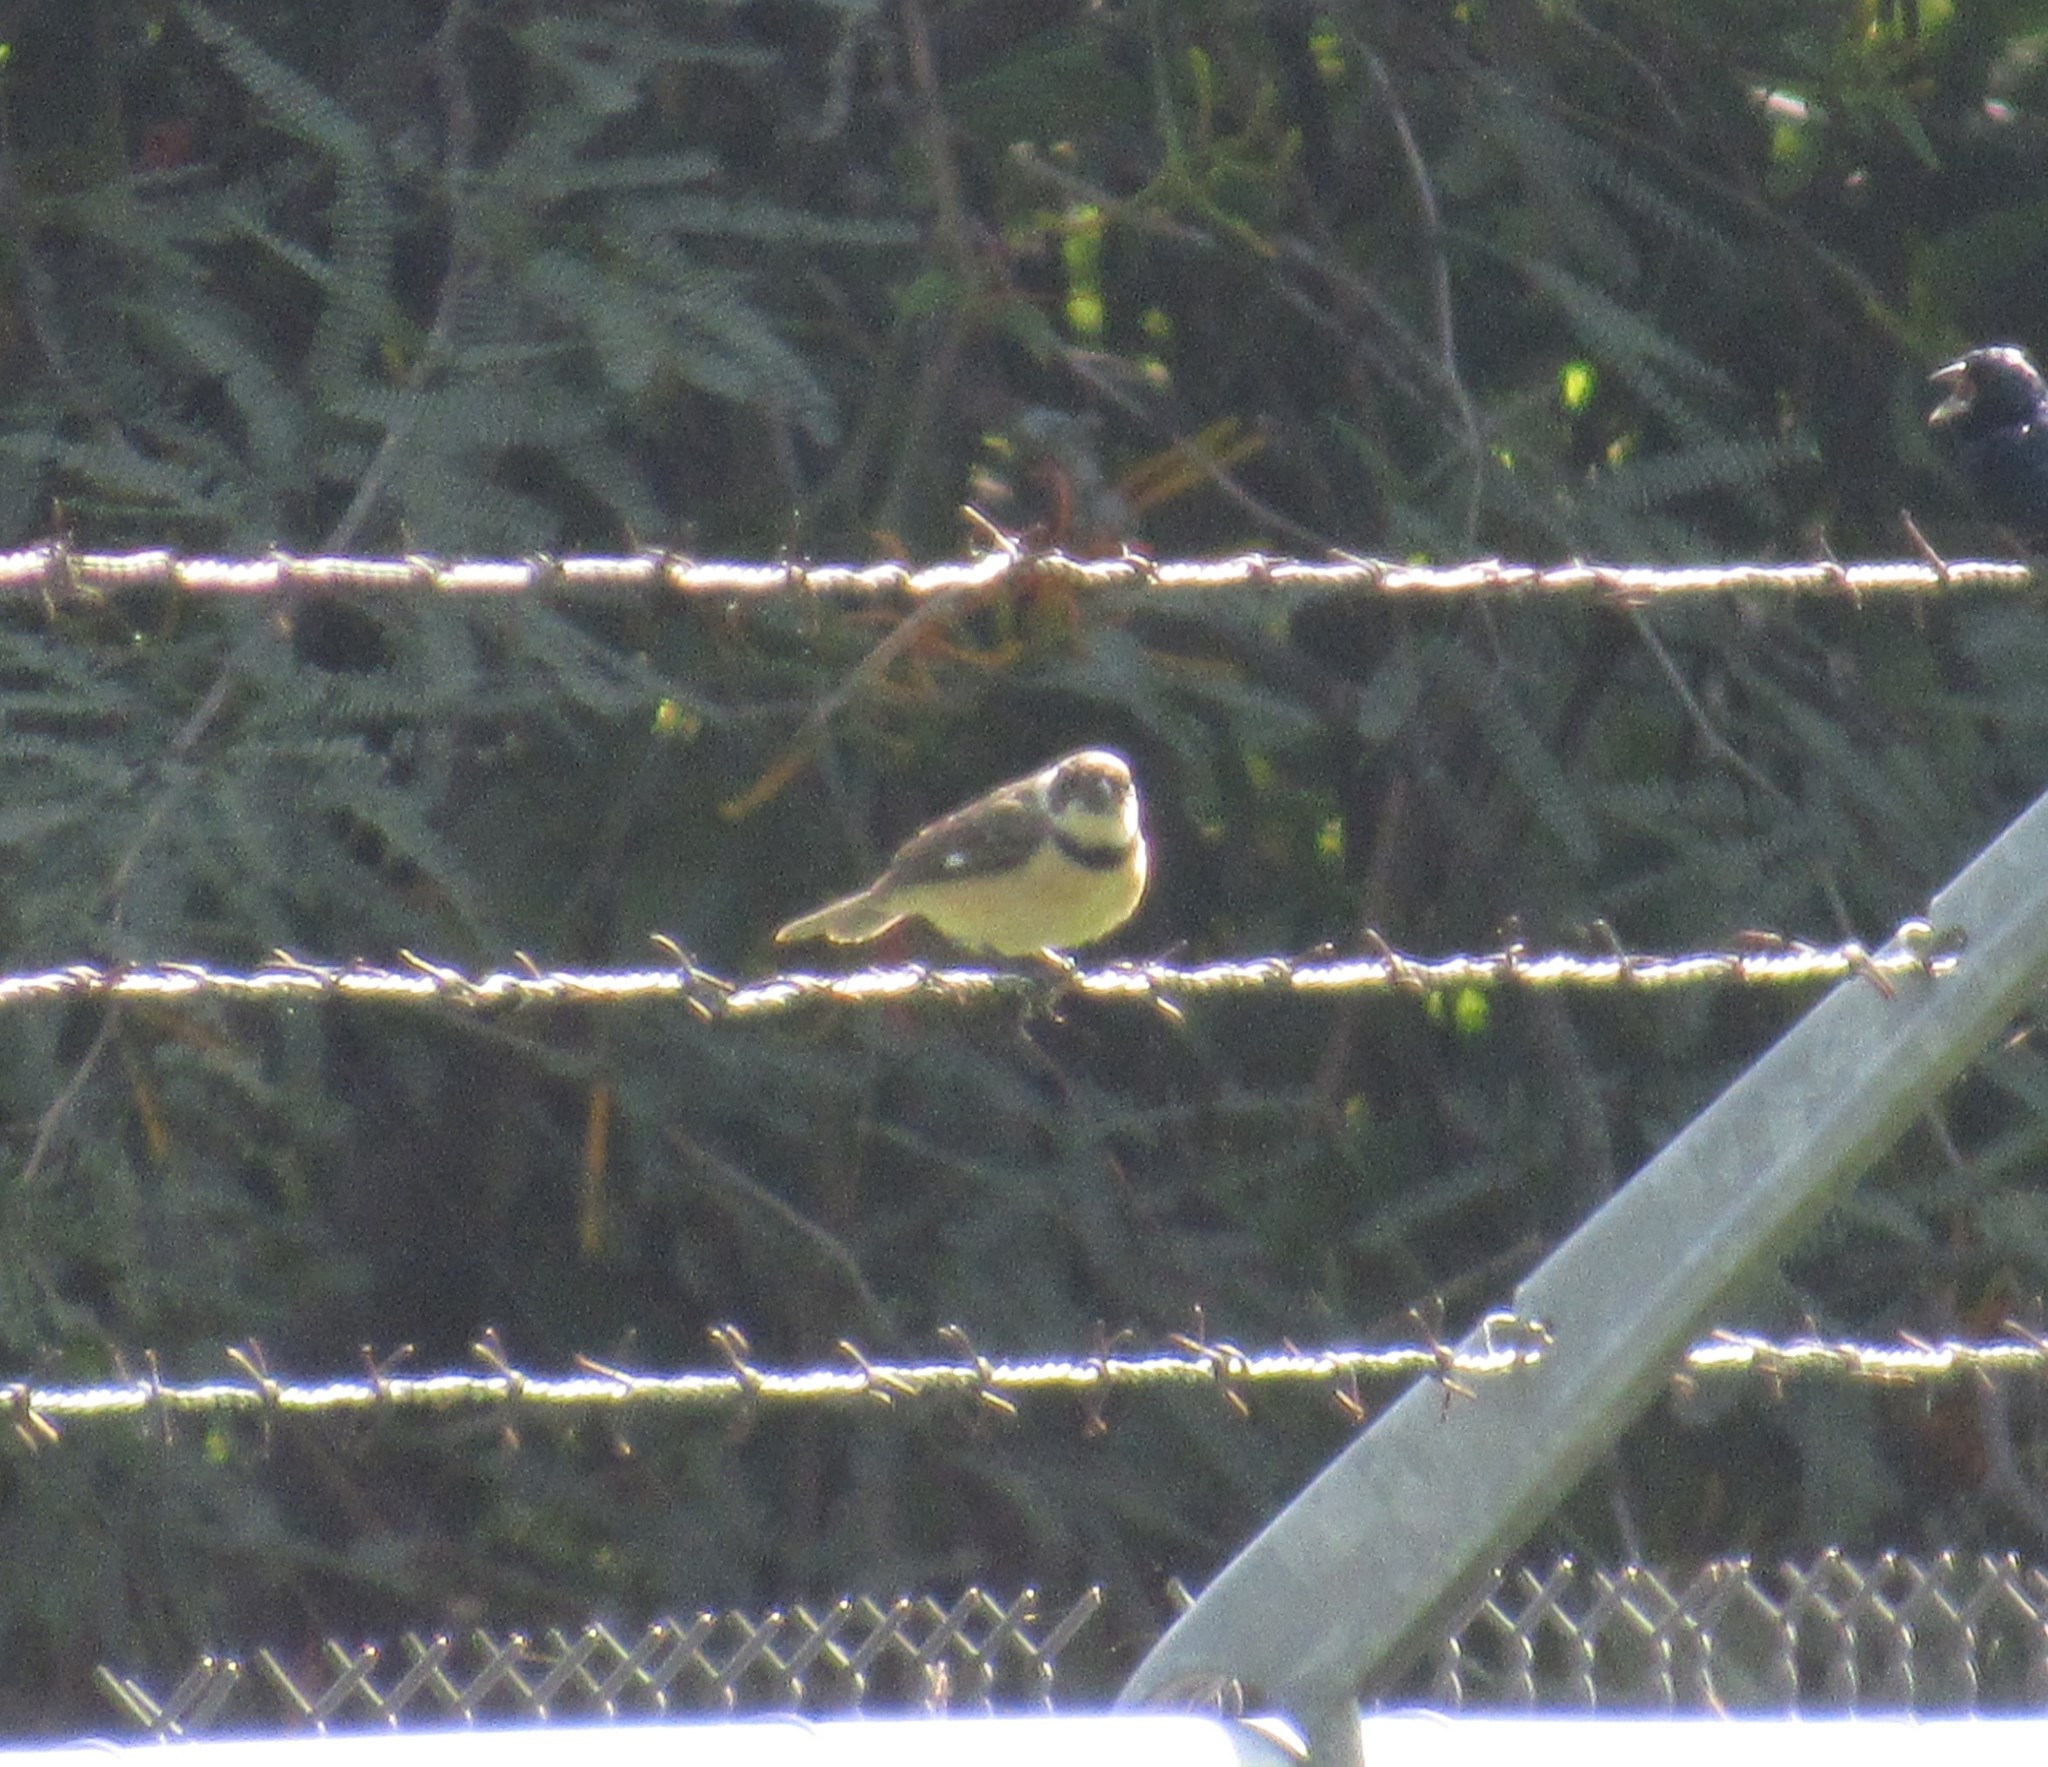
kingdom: Animalia
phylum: Chordata
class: Aves
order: Passeriformes
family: Thraupidae
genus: Sporophila
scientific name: Sporophila torqueola
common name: White-collared seedeater
